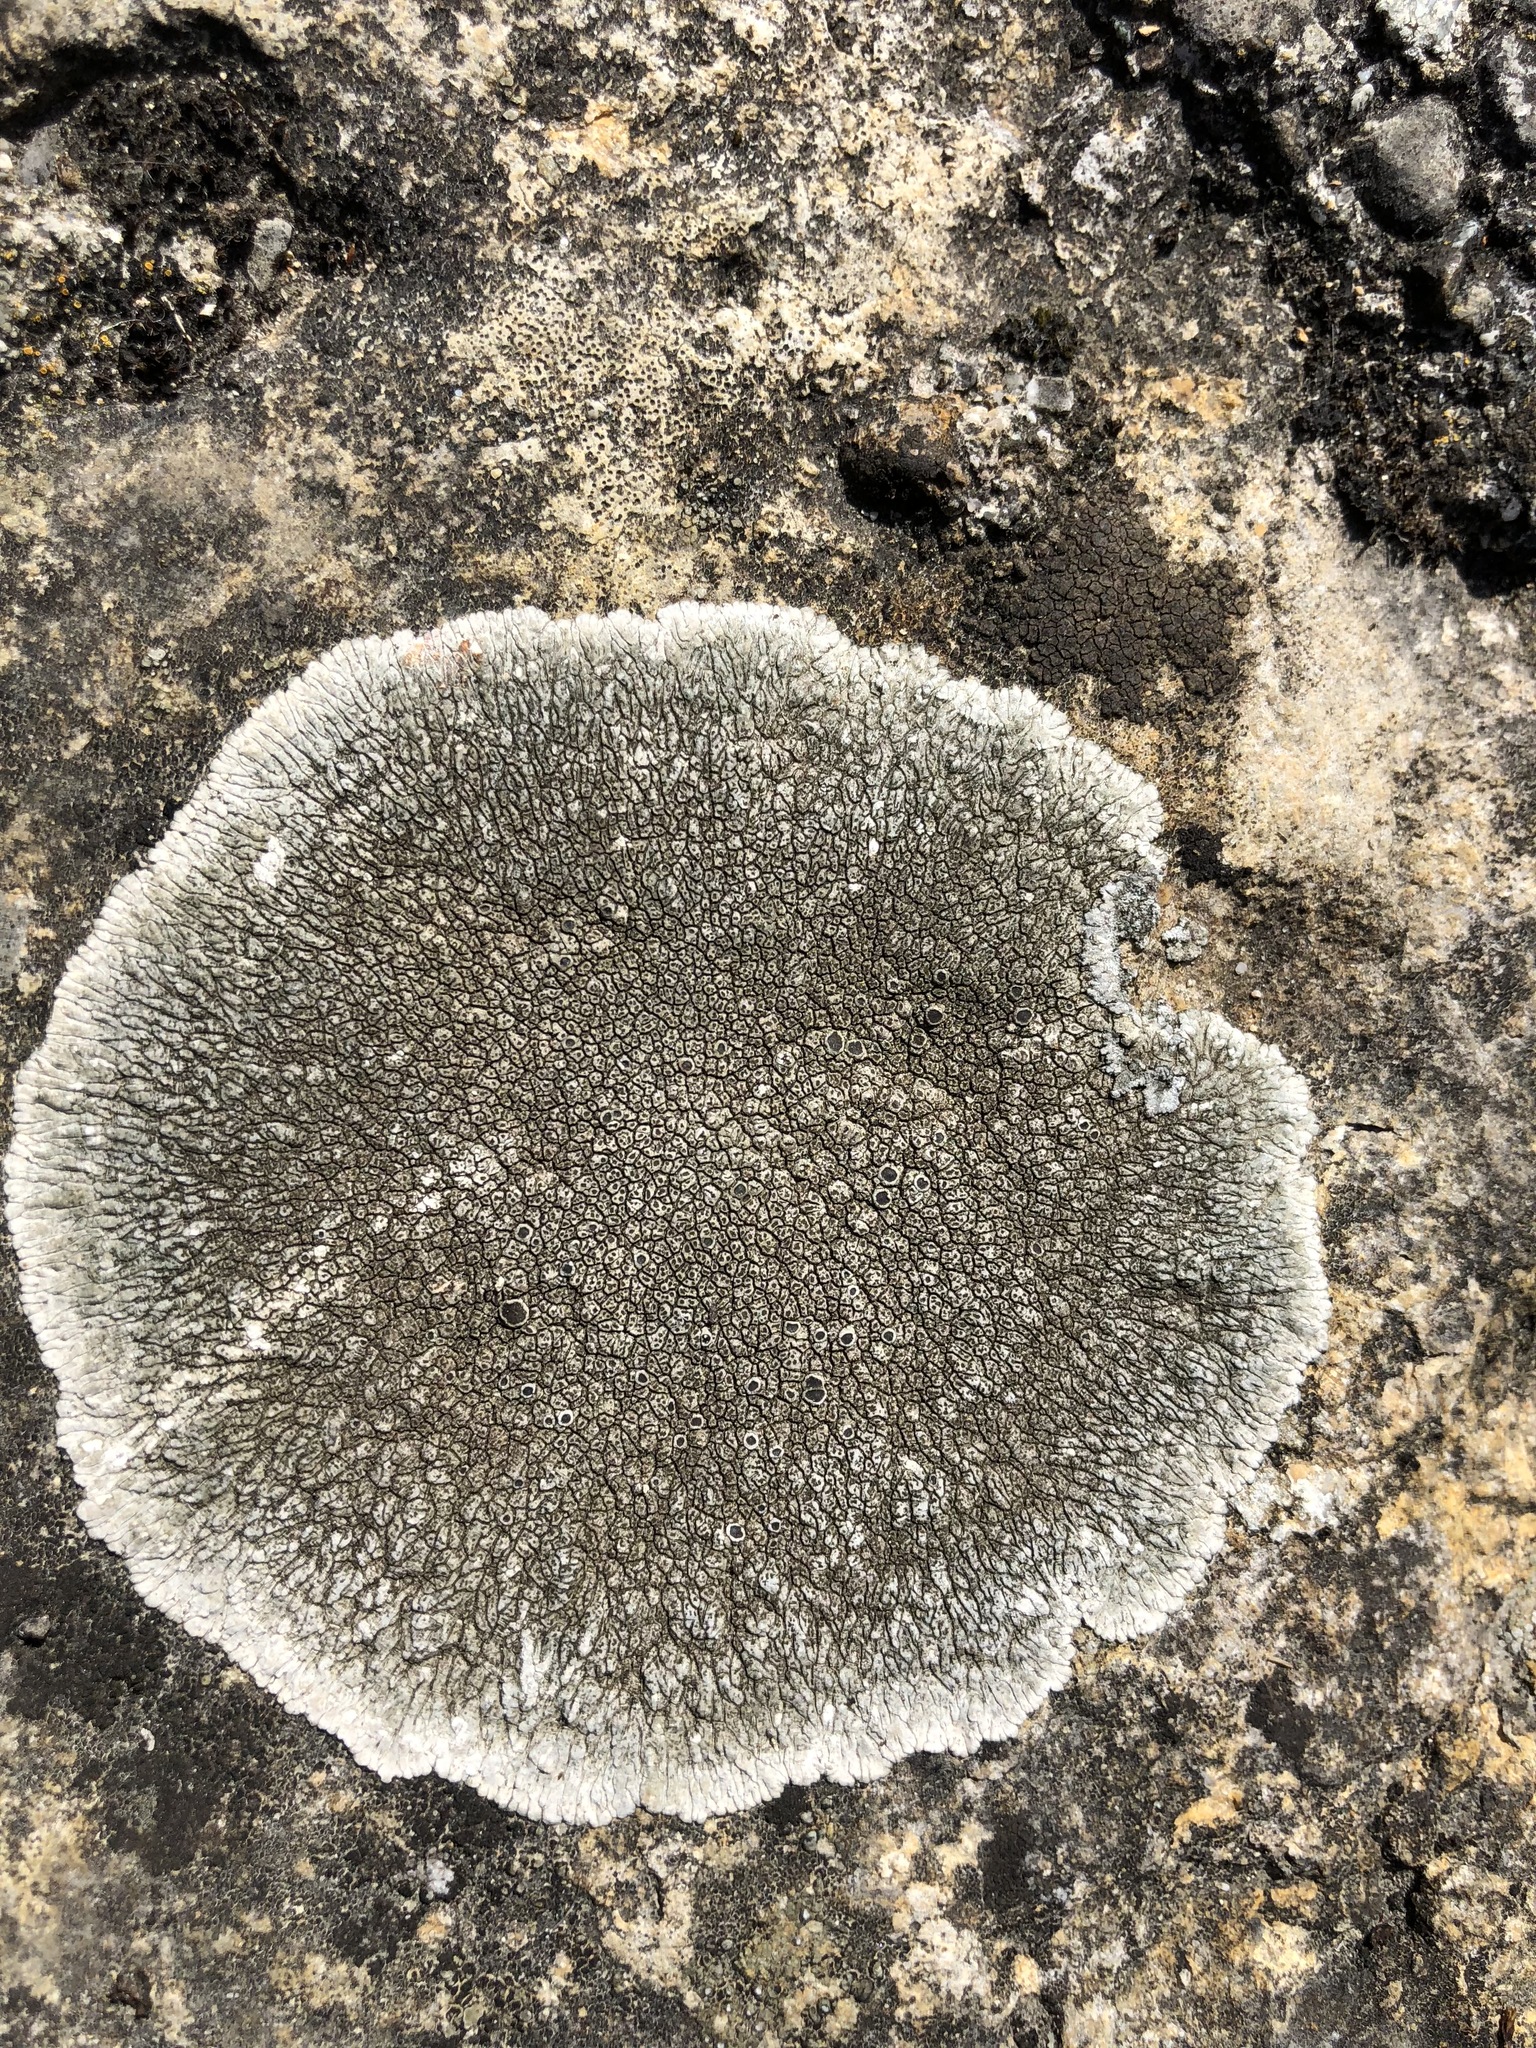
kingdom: Fungi
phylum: Ascomycota
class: Lecanoromycetes
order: Pertusariales
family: Megasporaceae
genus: Lobothallia
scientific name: Lobothallia radiosa
